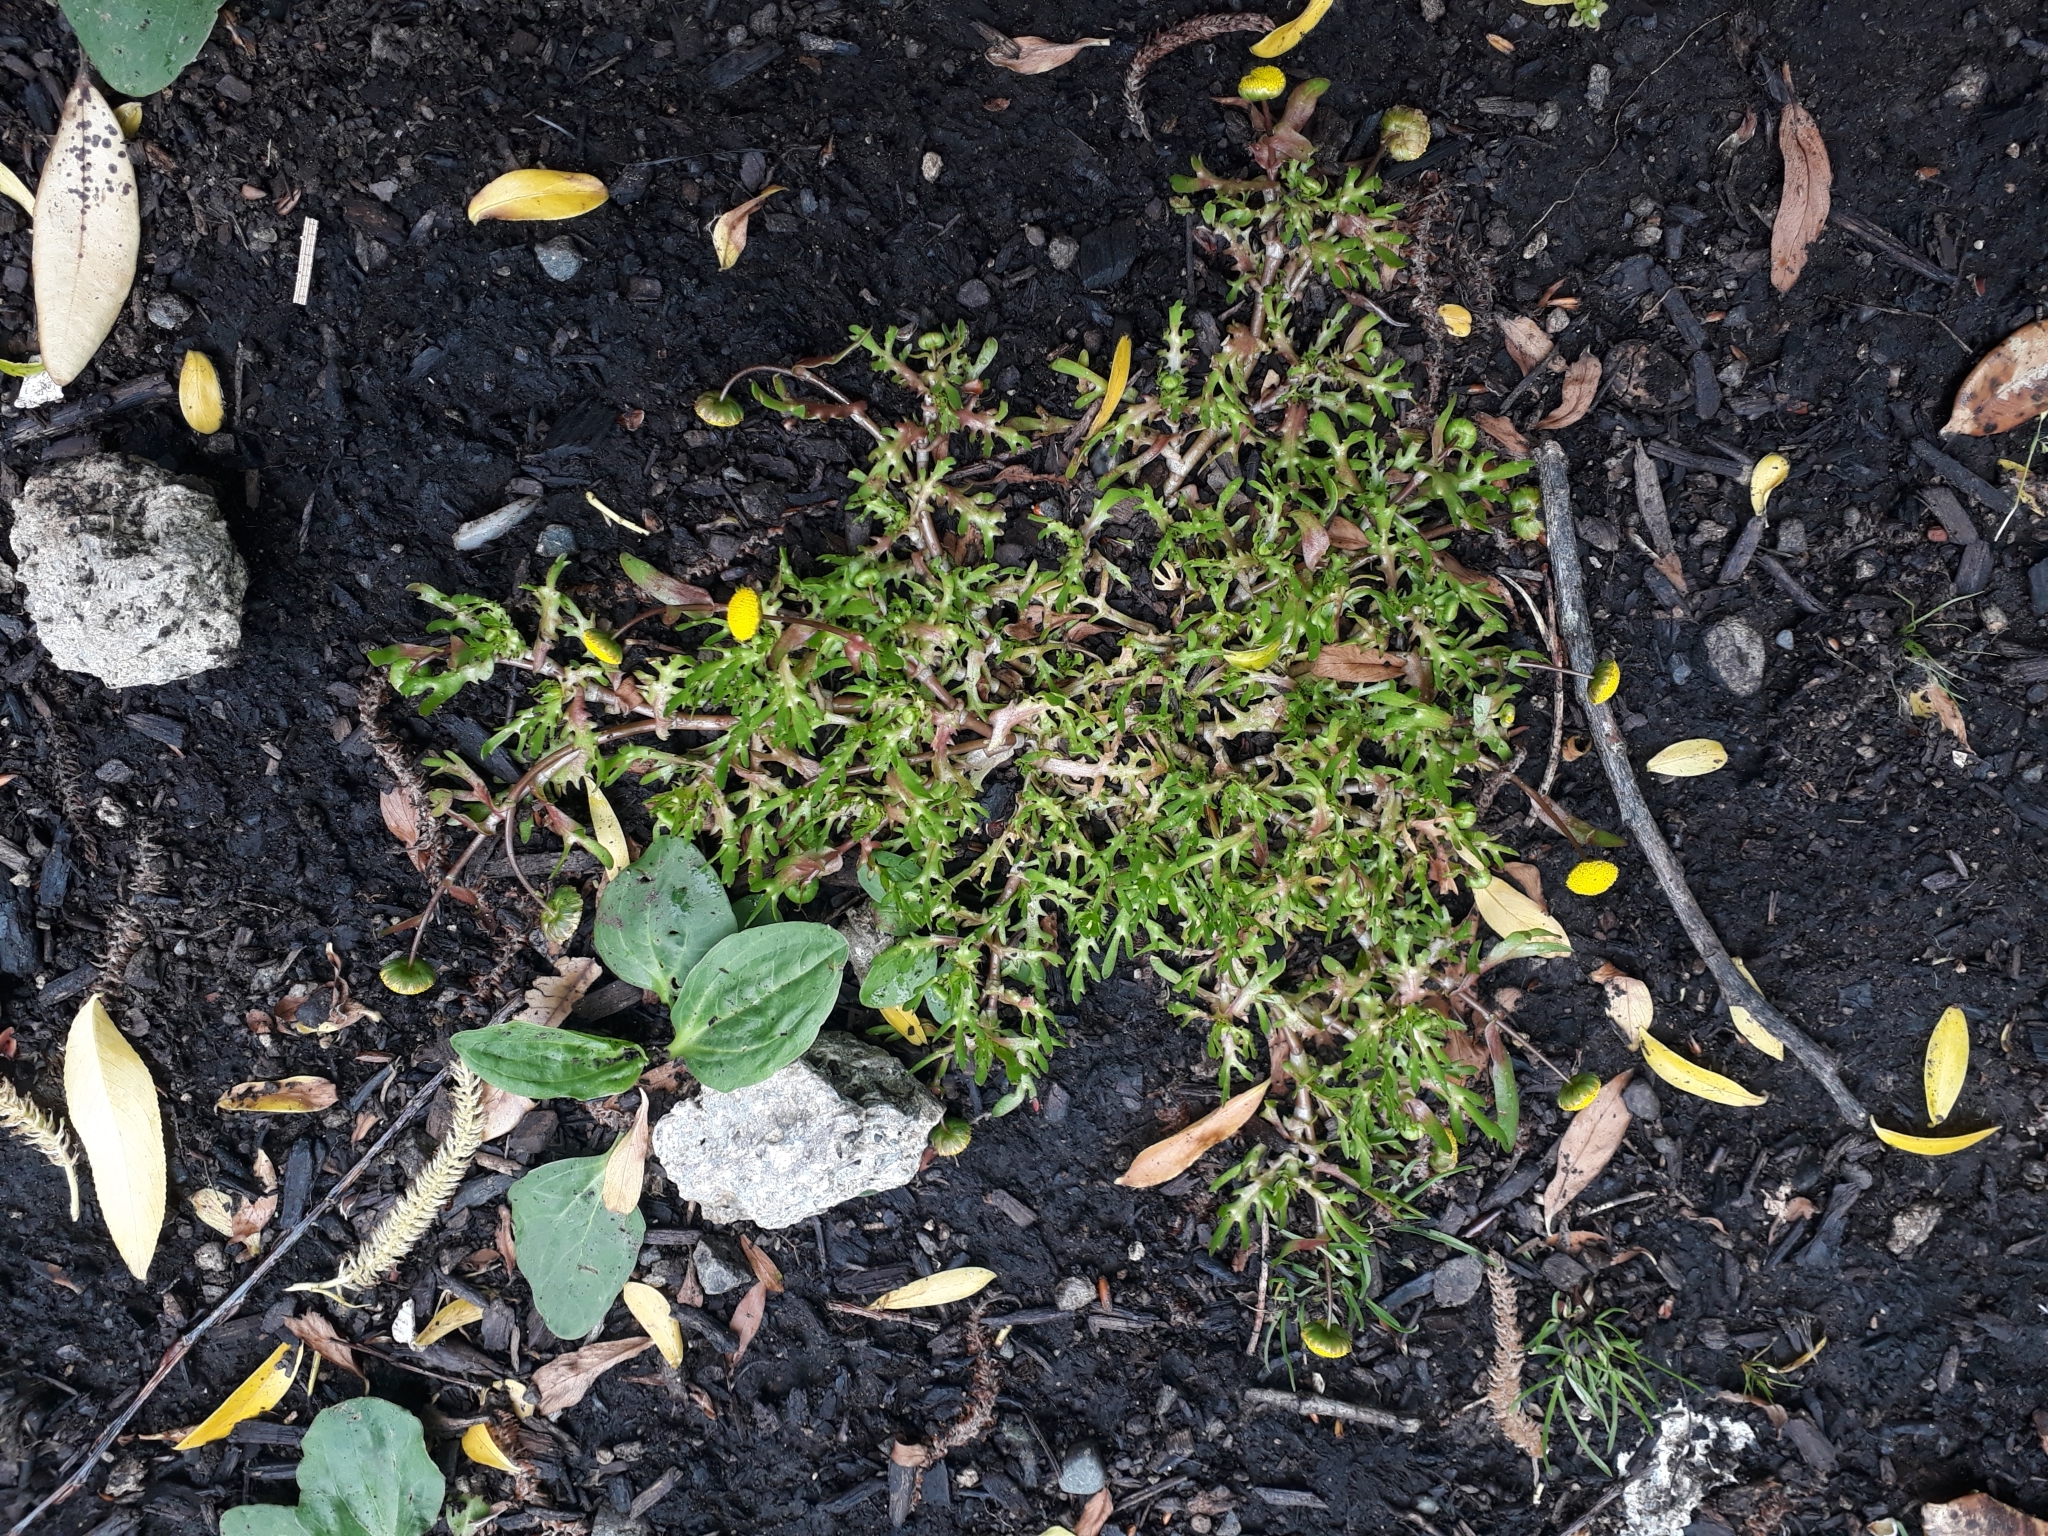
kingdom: Plantae
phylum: Tracheophyta
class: Magnoliopsida
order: Asterales
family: Asteraceae
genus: Cotula
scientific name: Cotula coronopifolia
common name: Buttonweed
